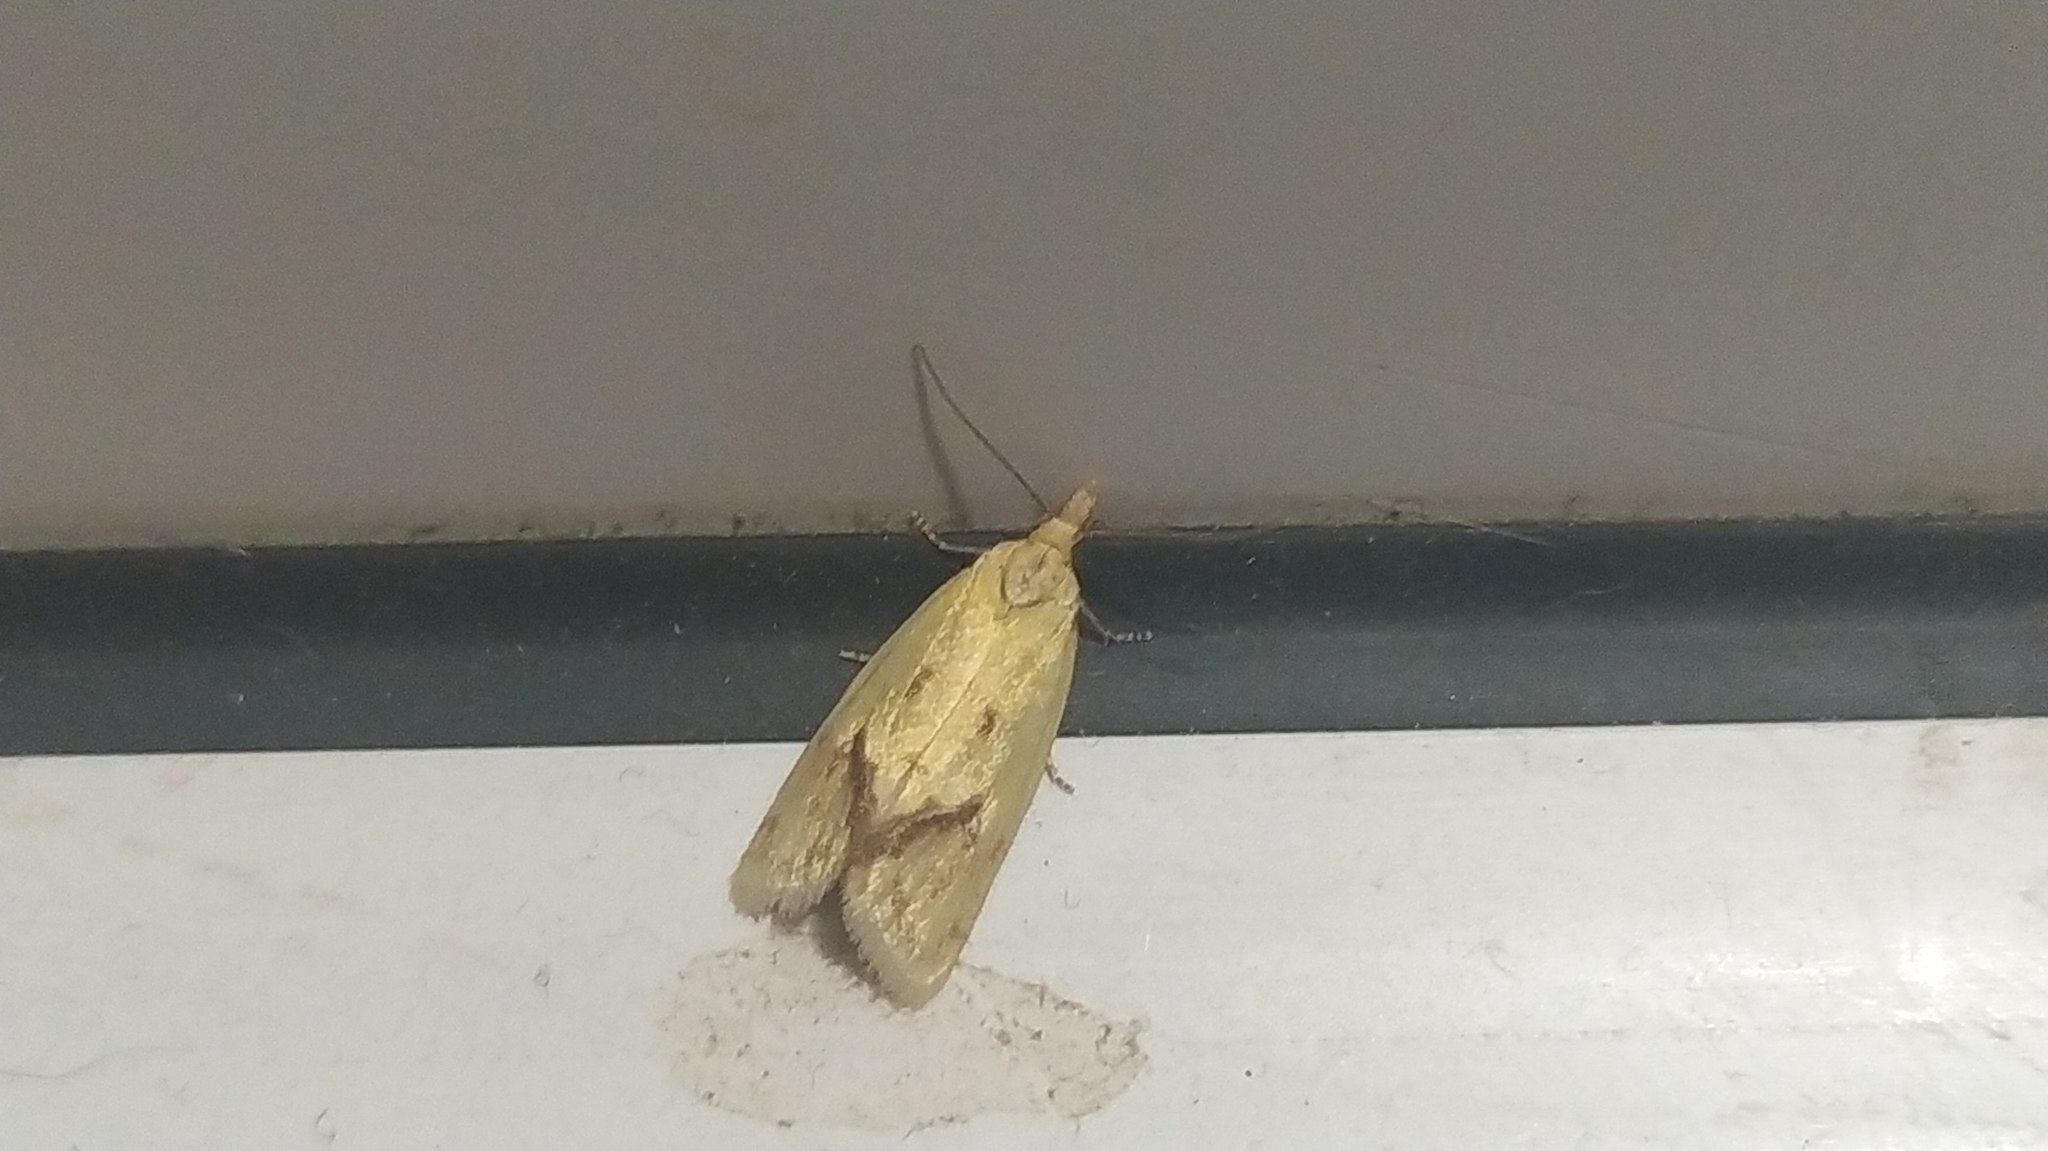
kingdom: Animalia
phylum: Arthropoda
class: Insecta
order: Lepidoptera
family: Tortricidae
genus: Agapeta
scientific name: Agapeta hamana
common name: Common yellow conch
